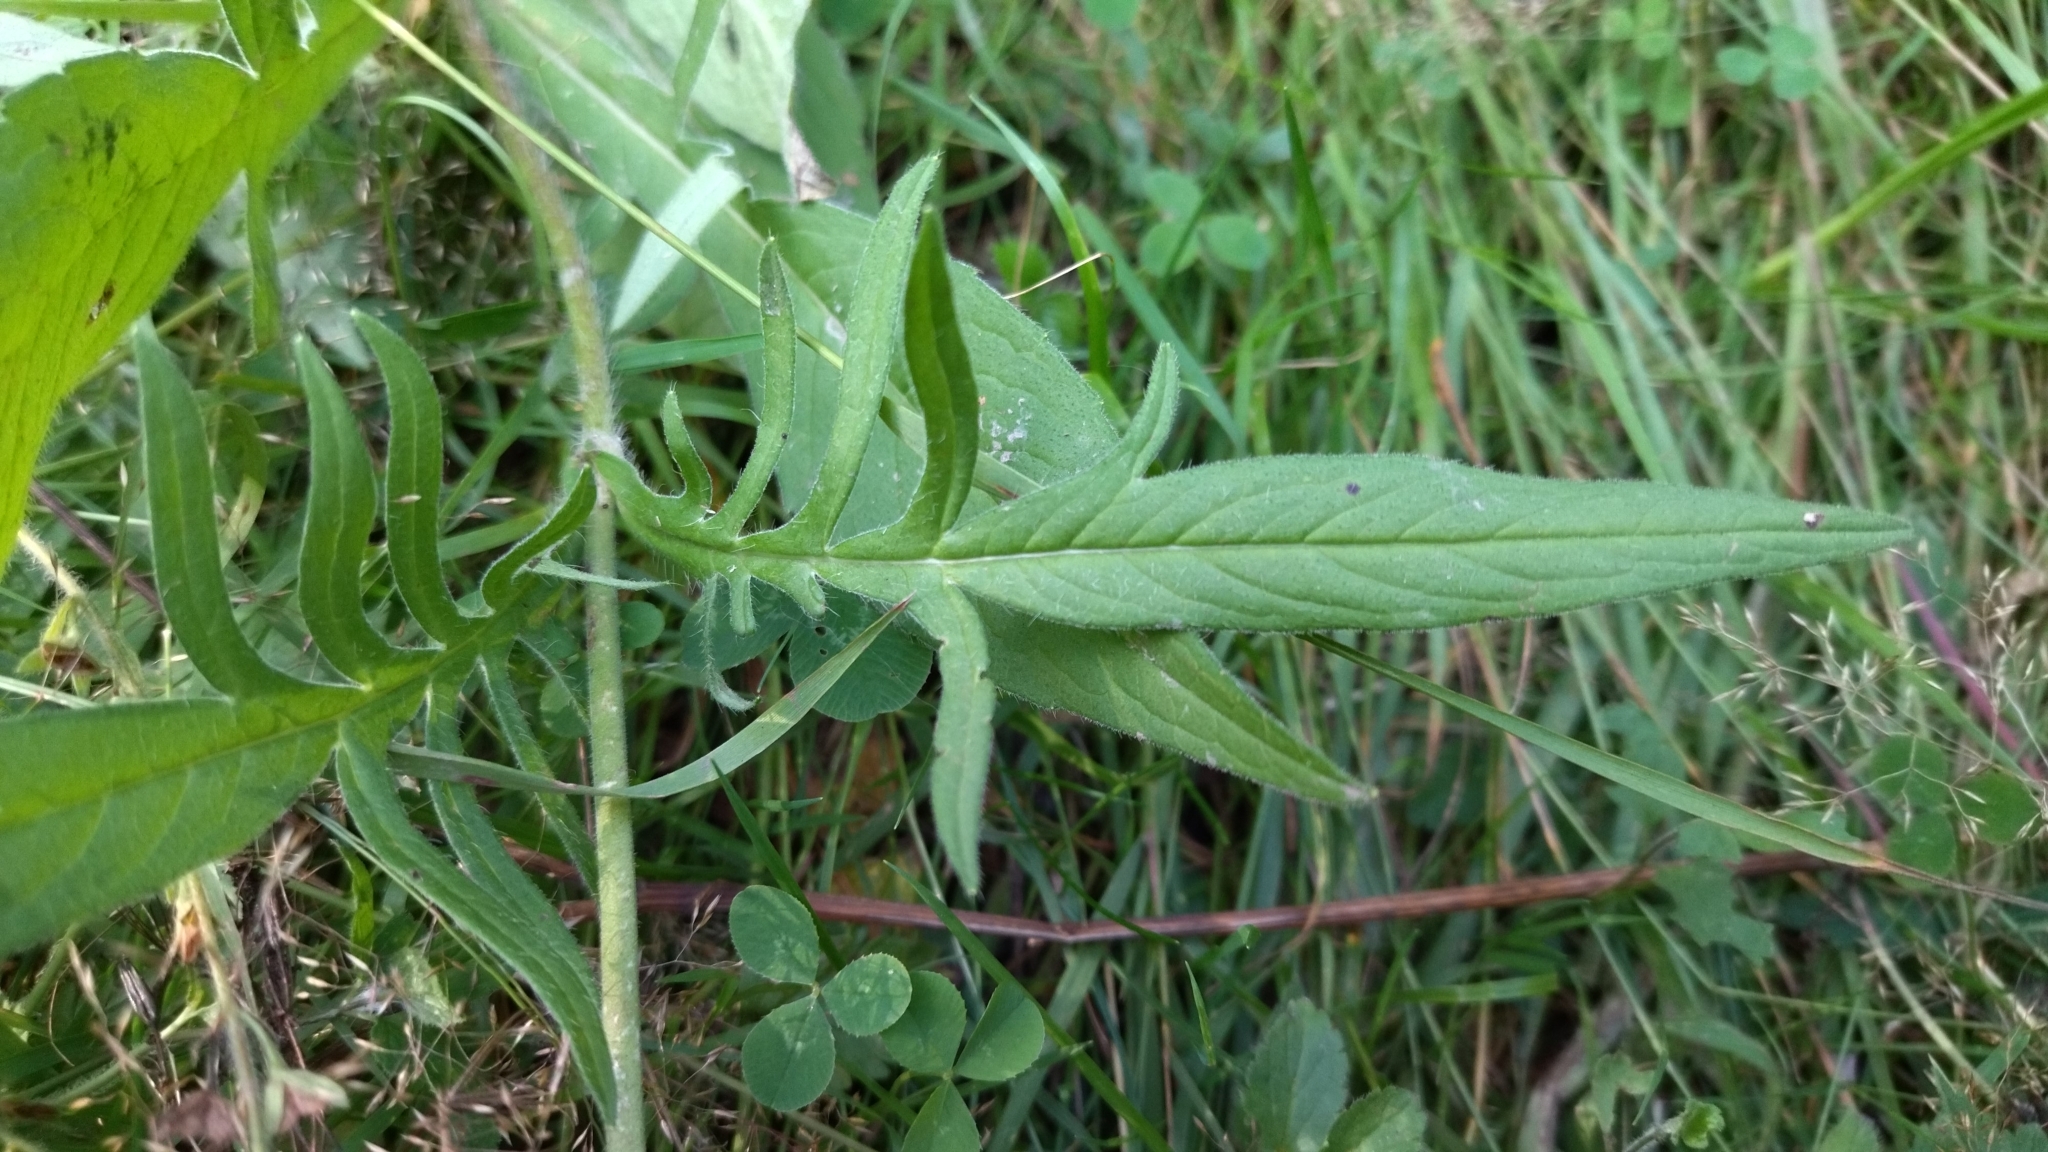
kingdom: Plantae
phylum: Tracheophyta
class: Magnoliopsida
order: Dipsacales
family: Caprifoliaceae
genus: Knautia
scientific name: Knautia arvensis
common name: Field scabiosa
